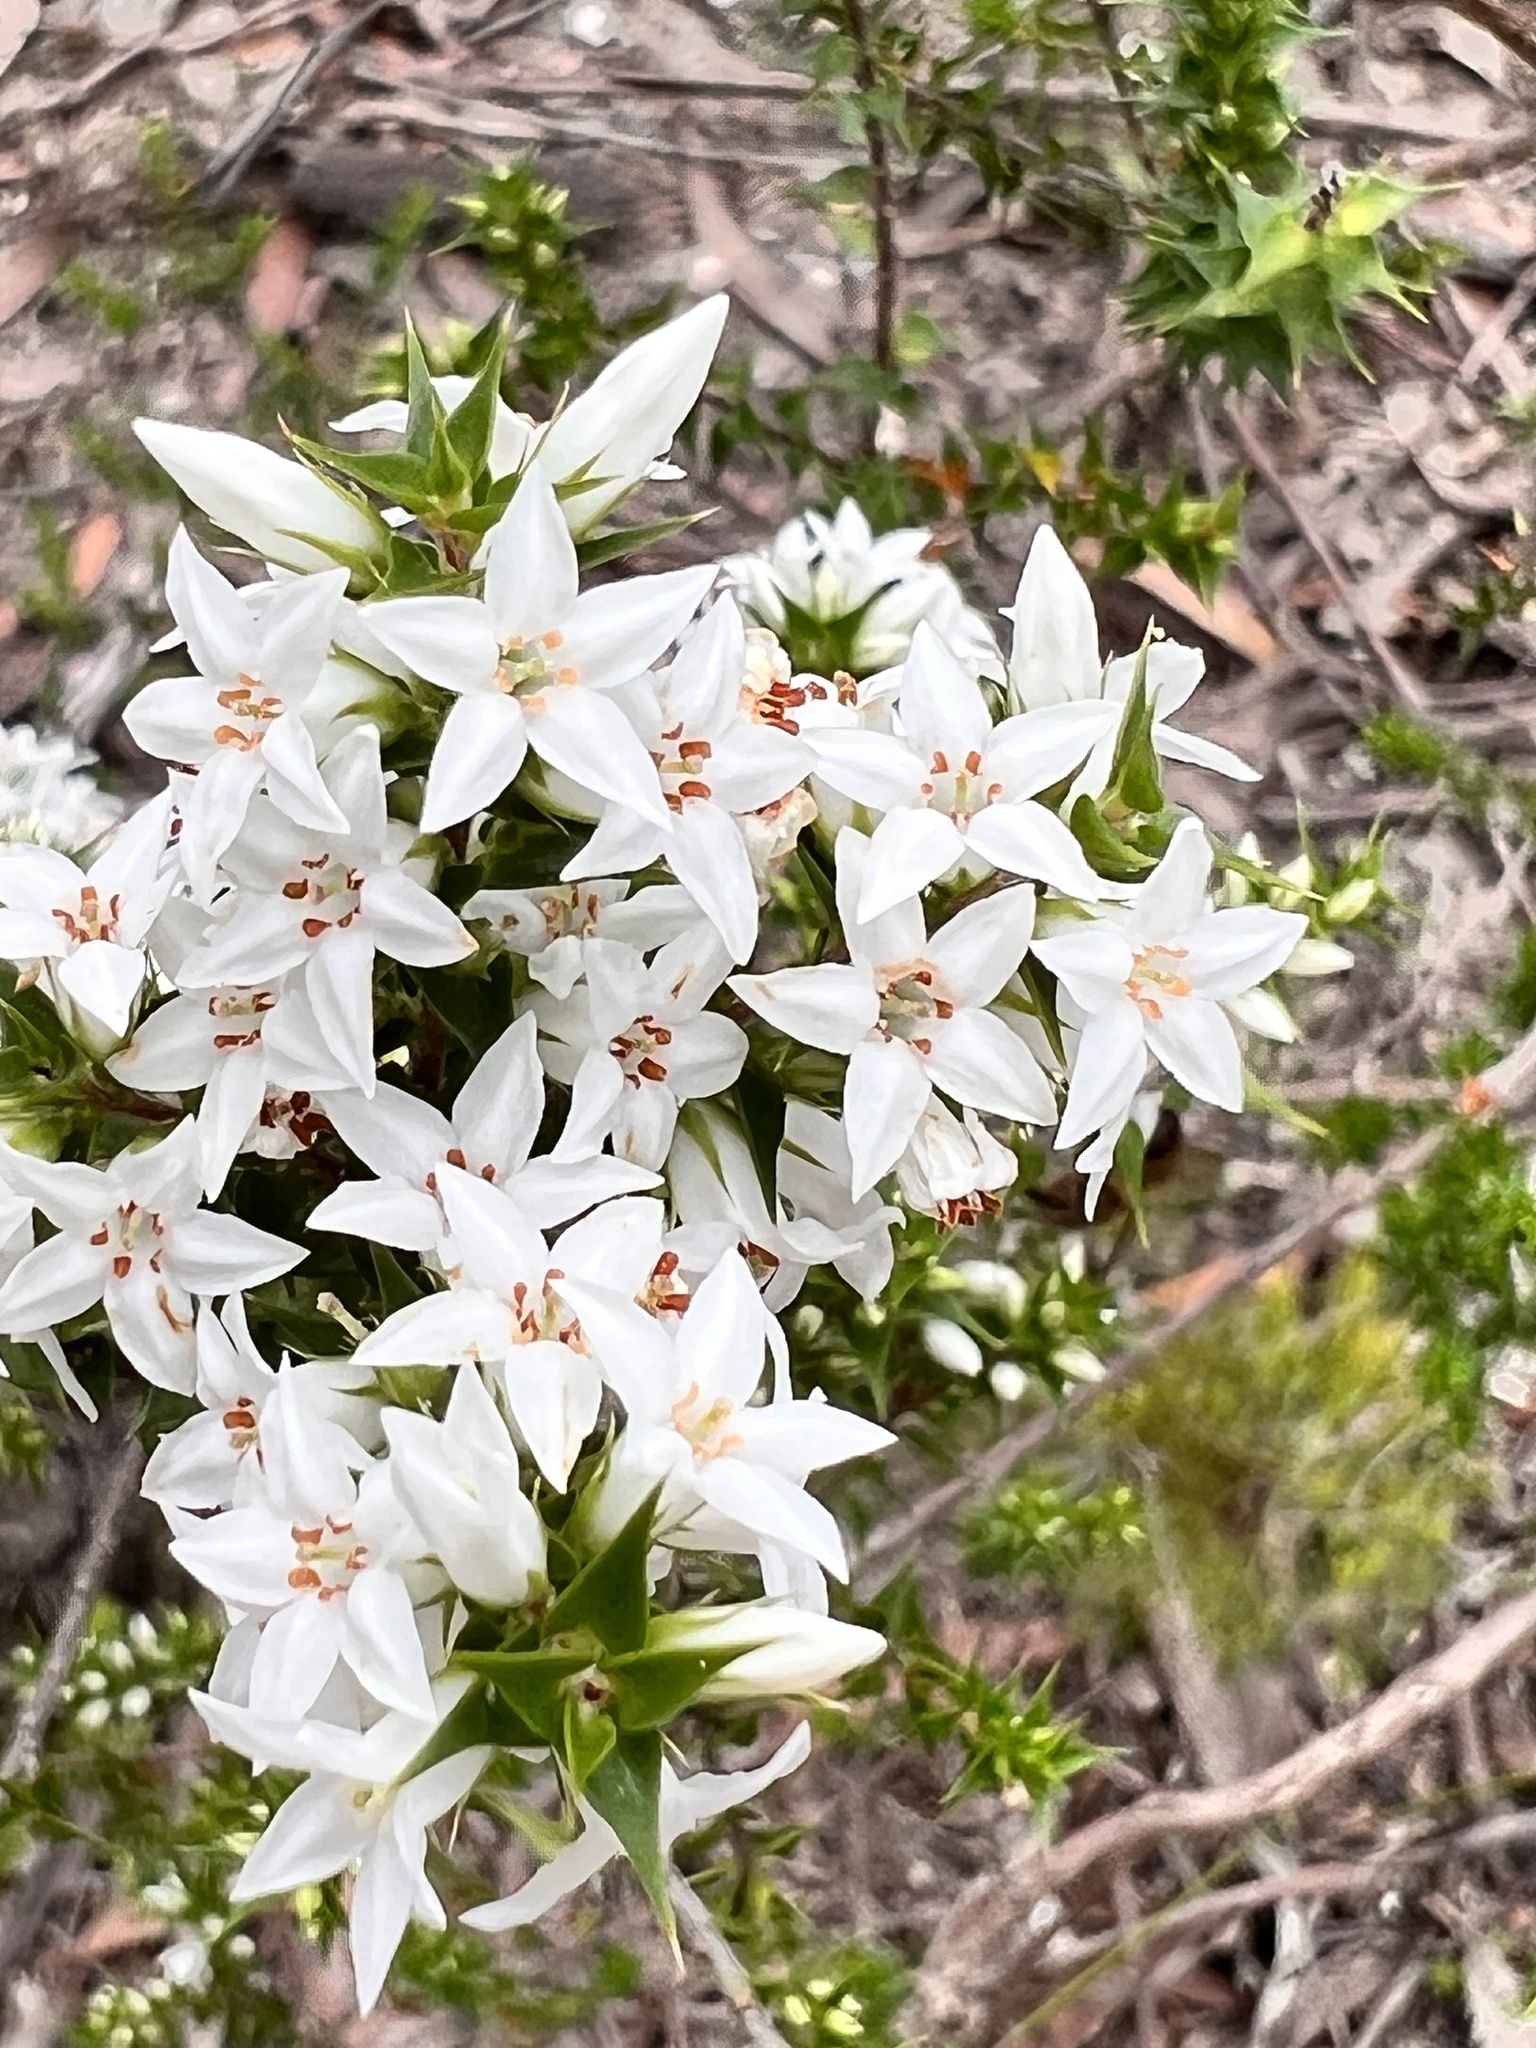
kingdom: Plantae
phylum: Tracheophyta
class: Magnoliopsida
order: Ericales
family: Ericaceae
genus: Epacris
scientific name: Epacris pulchella
